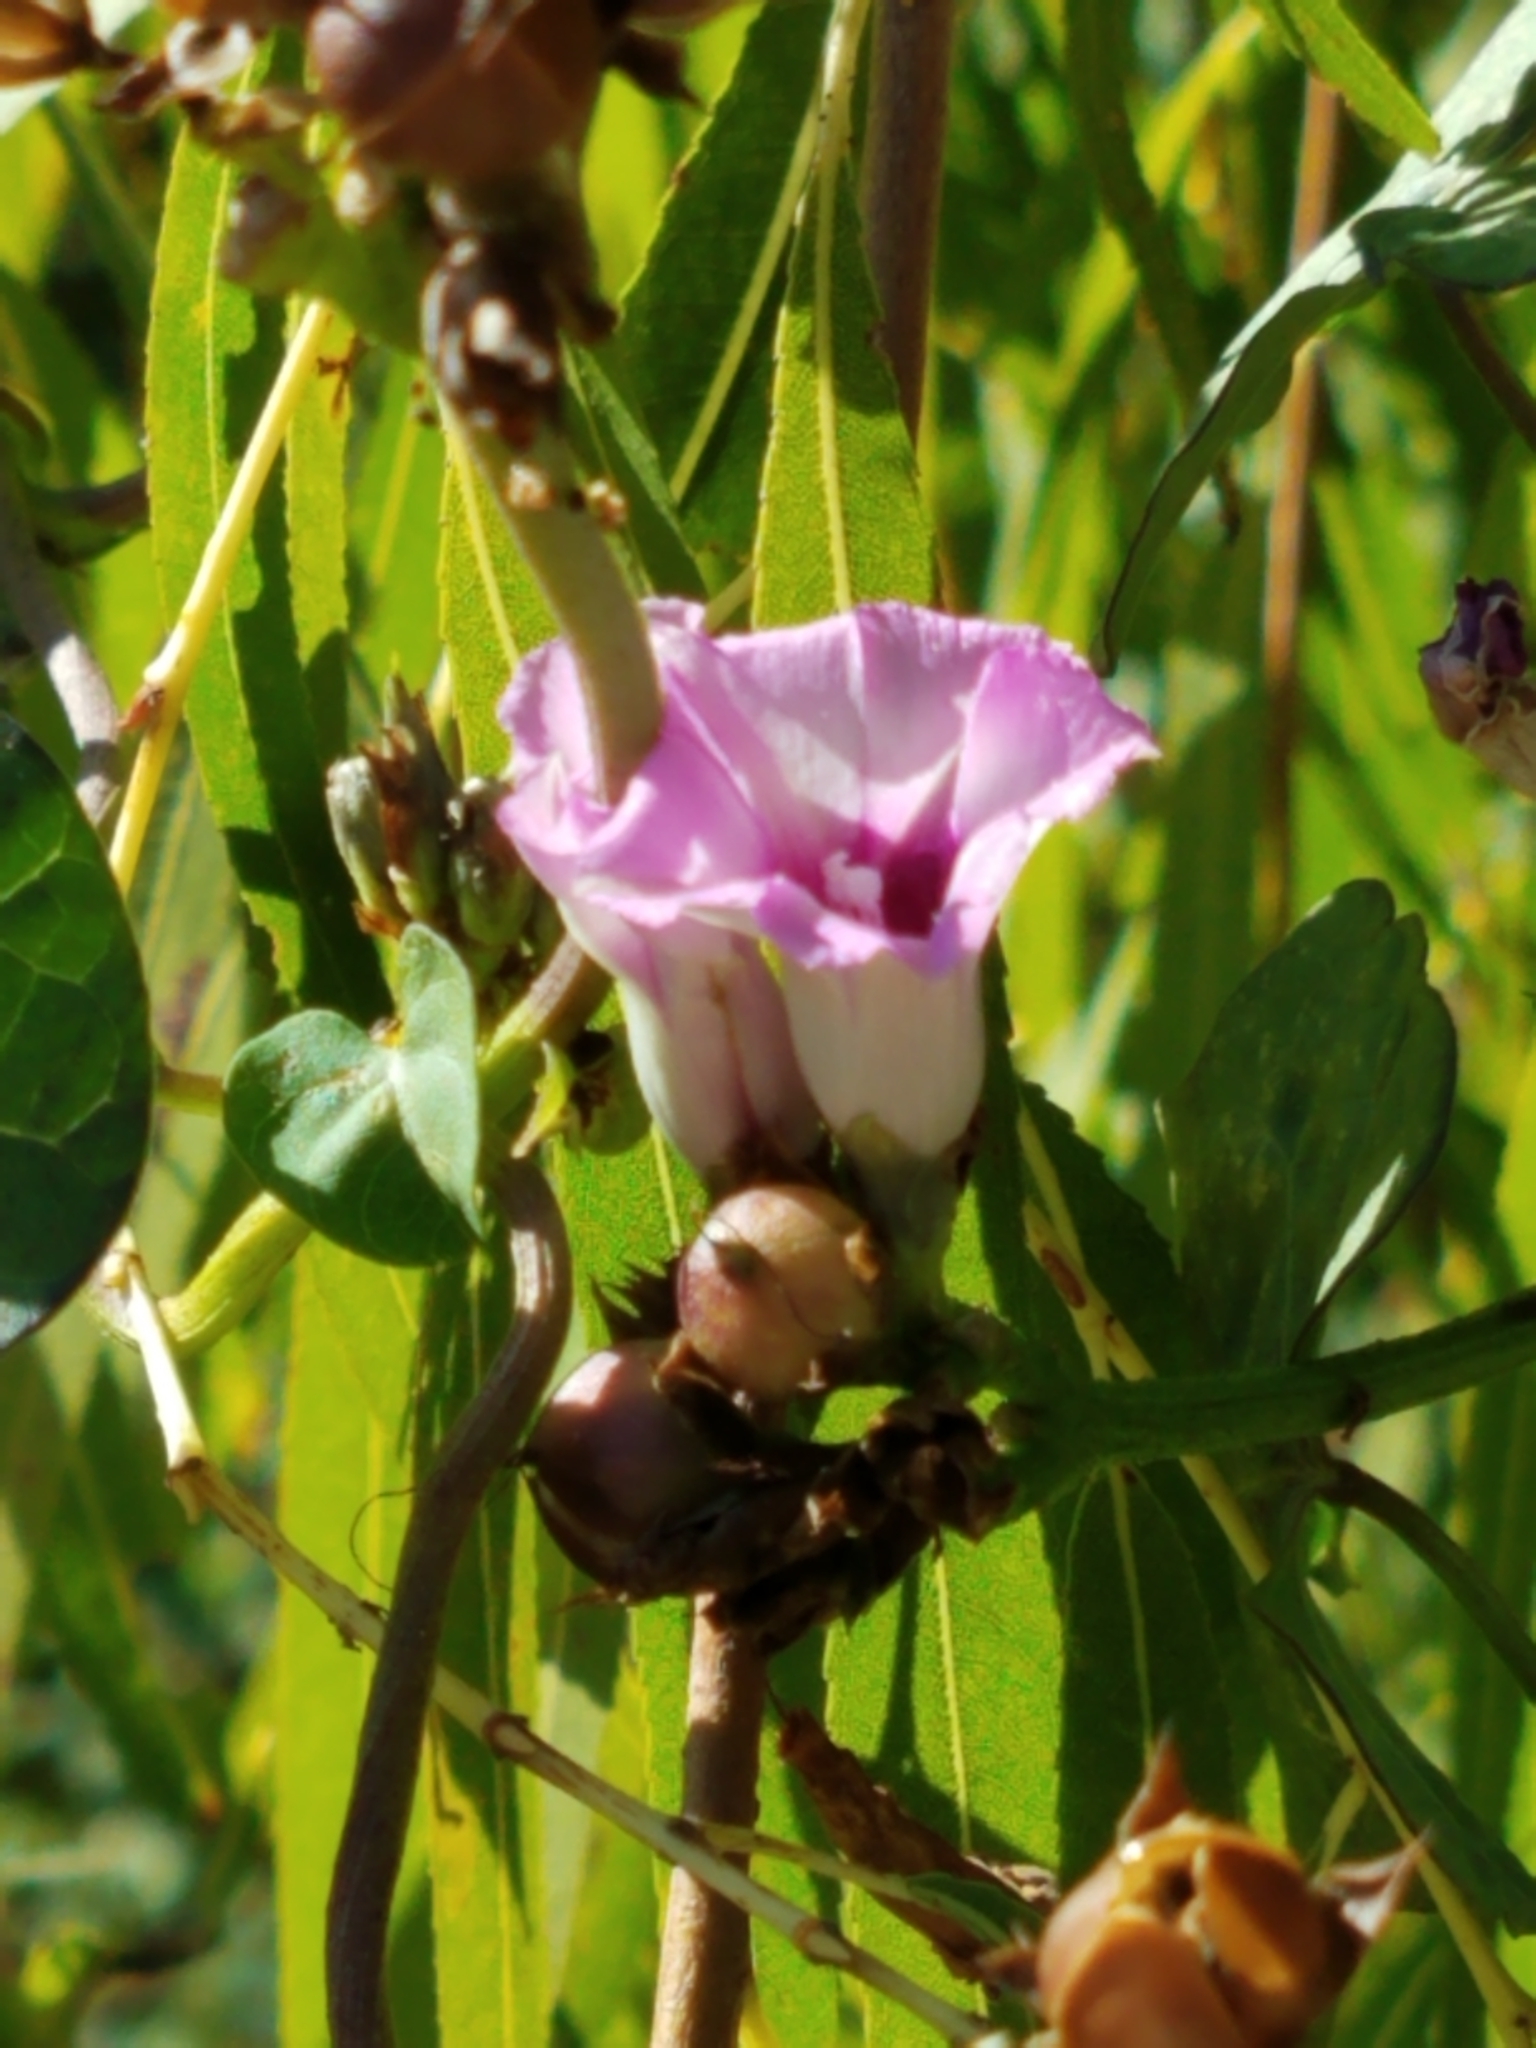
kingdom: Plantae
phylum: Tracheophyta
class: Magnoliopsida
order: Solanales
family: Convolvulaceae
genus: Ipomoea
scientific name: Ipomoea amnicola
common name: Redcenter morning-glory
